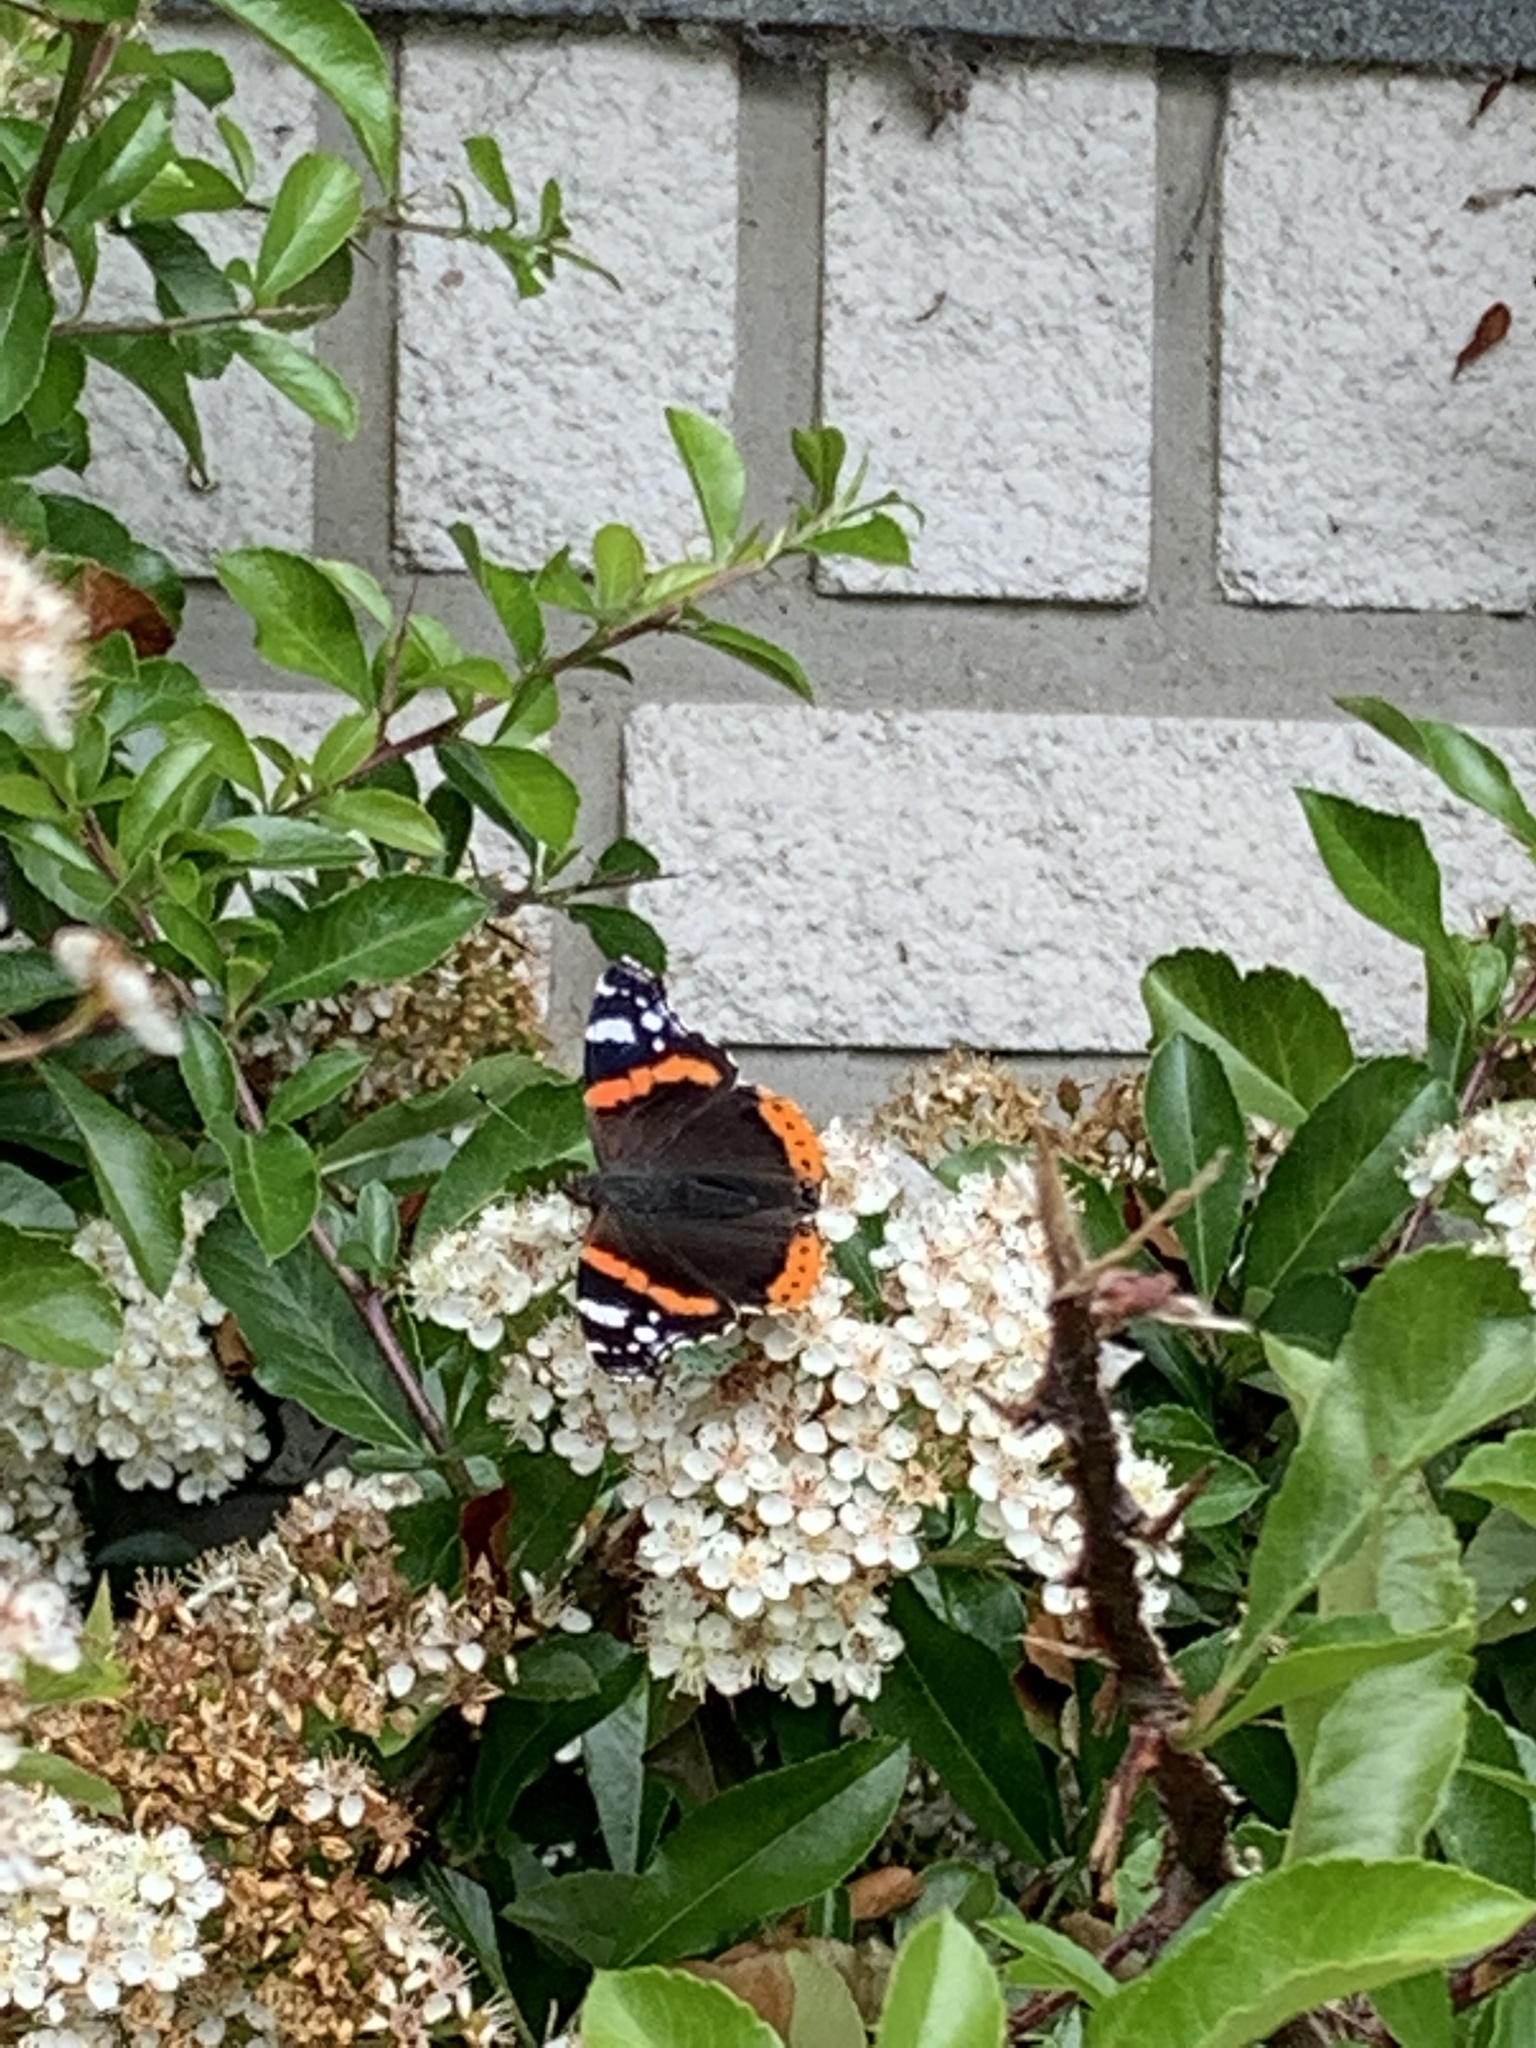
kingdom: Animalia
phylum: Arthropoda
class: Insecta
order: Lepidoptera
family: Nymphalidae
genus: Vanessa
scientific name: Vanessa atalanta
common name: Red admiral
